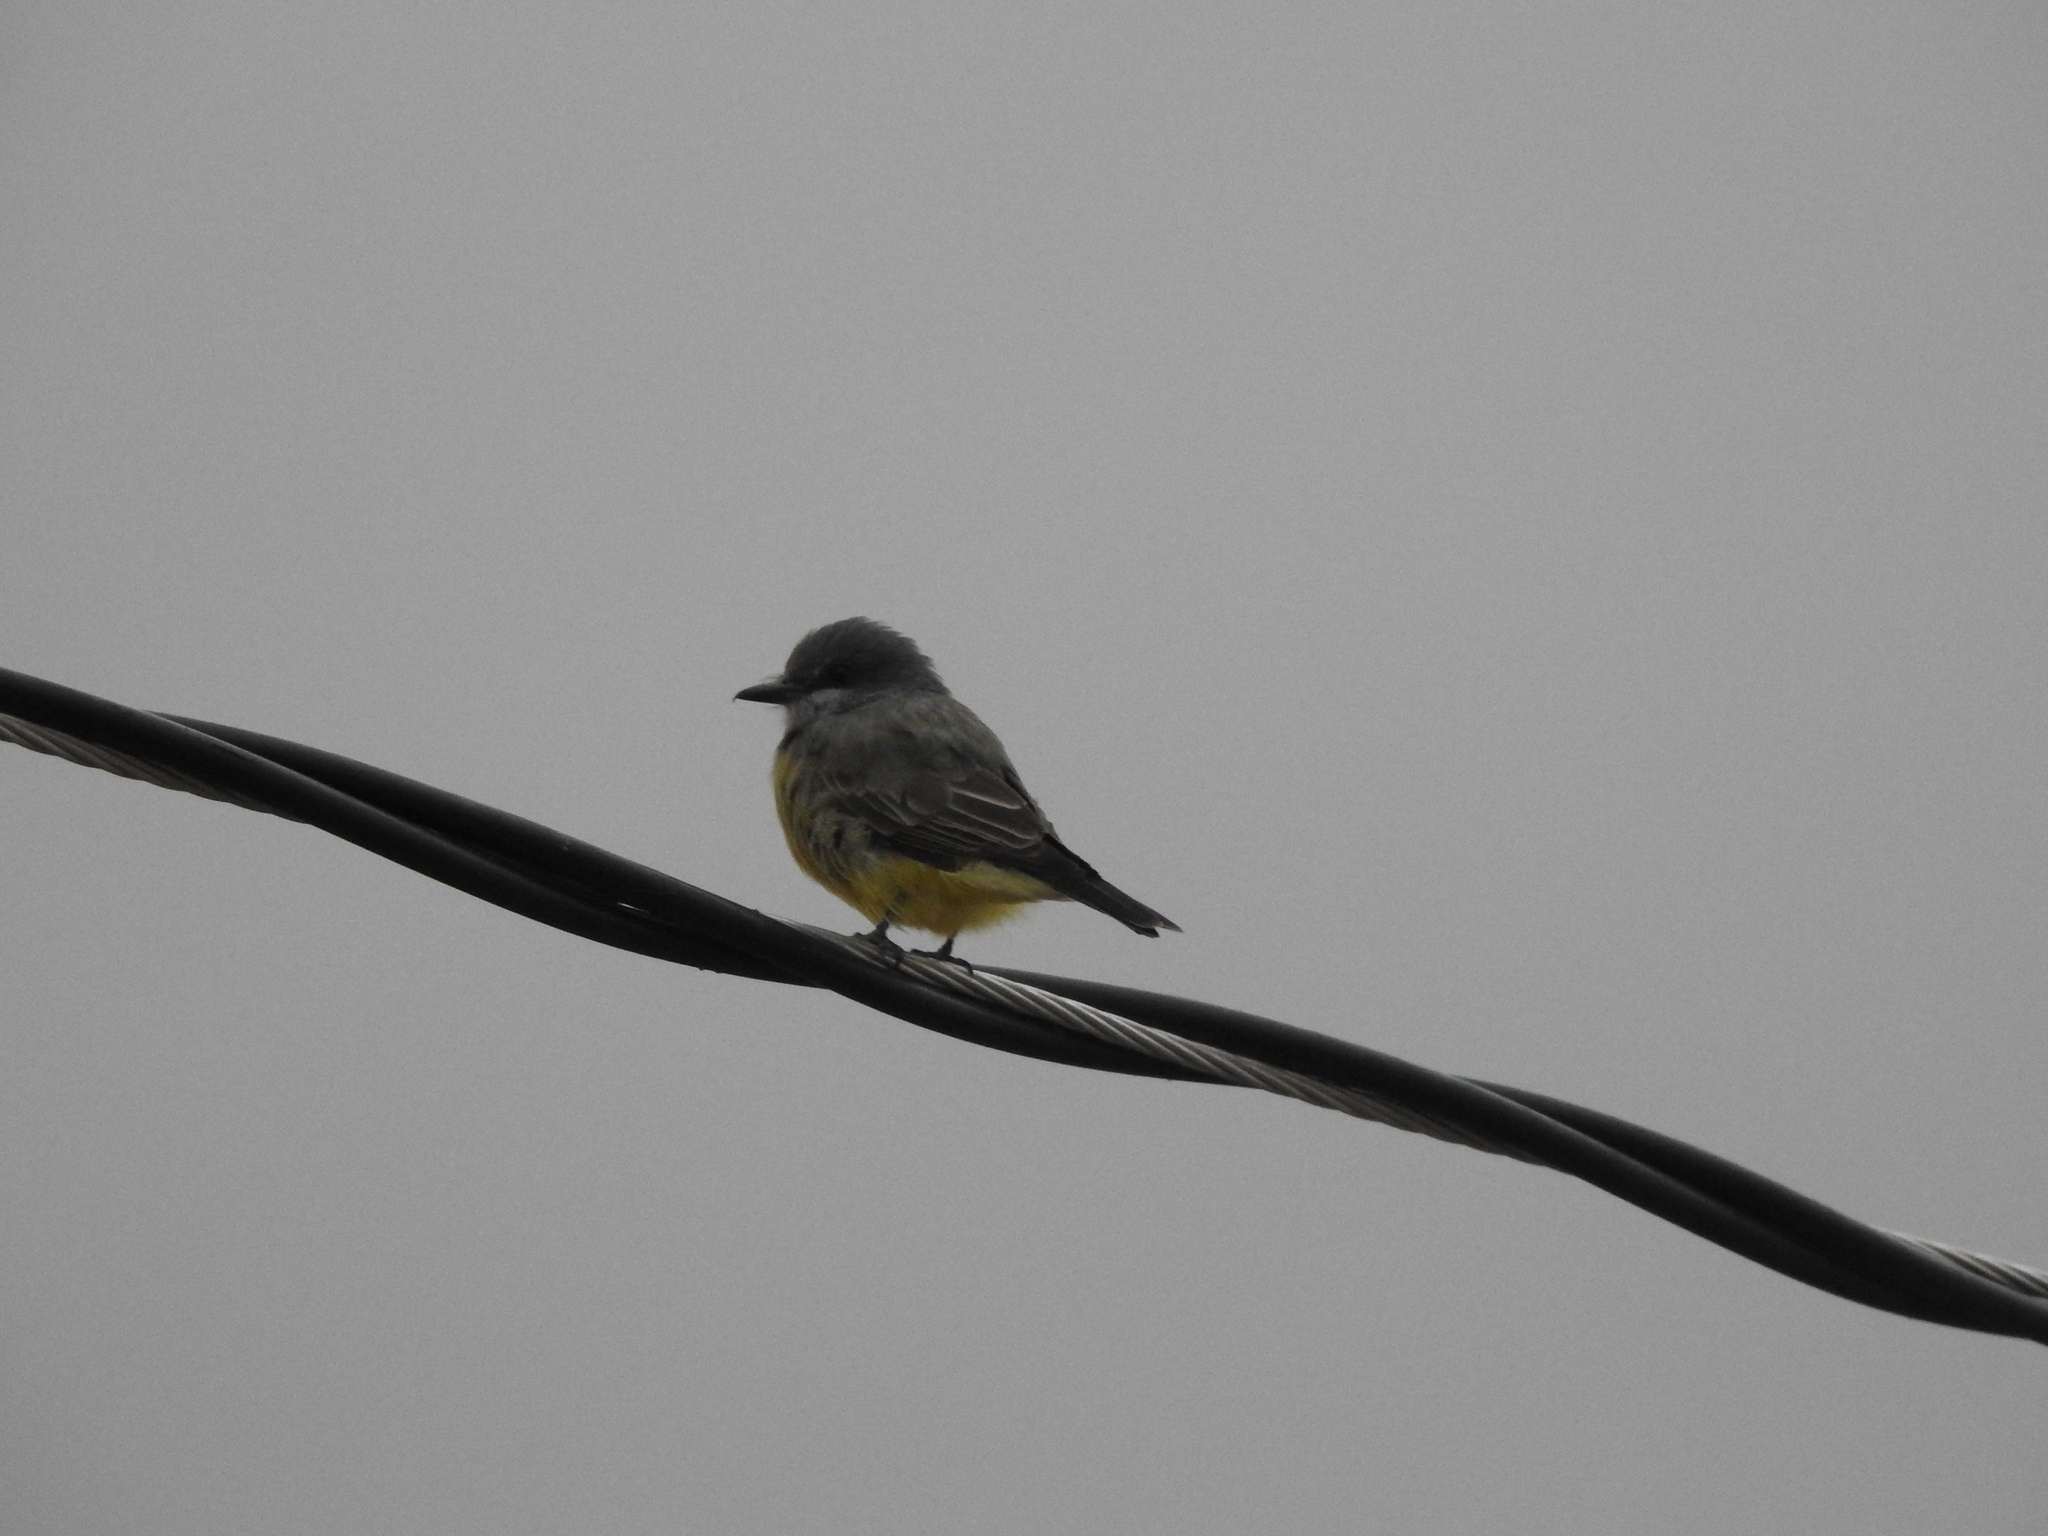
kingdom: Animalia
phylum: Chordata
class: Aves
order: Passeriformes
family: Tyrannidae
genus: Tyrannus
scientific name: Tyrannus vociferans
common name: Cassin's kingbird
